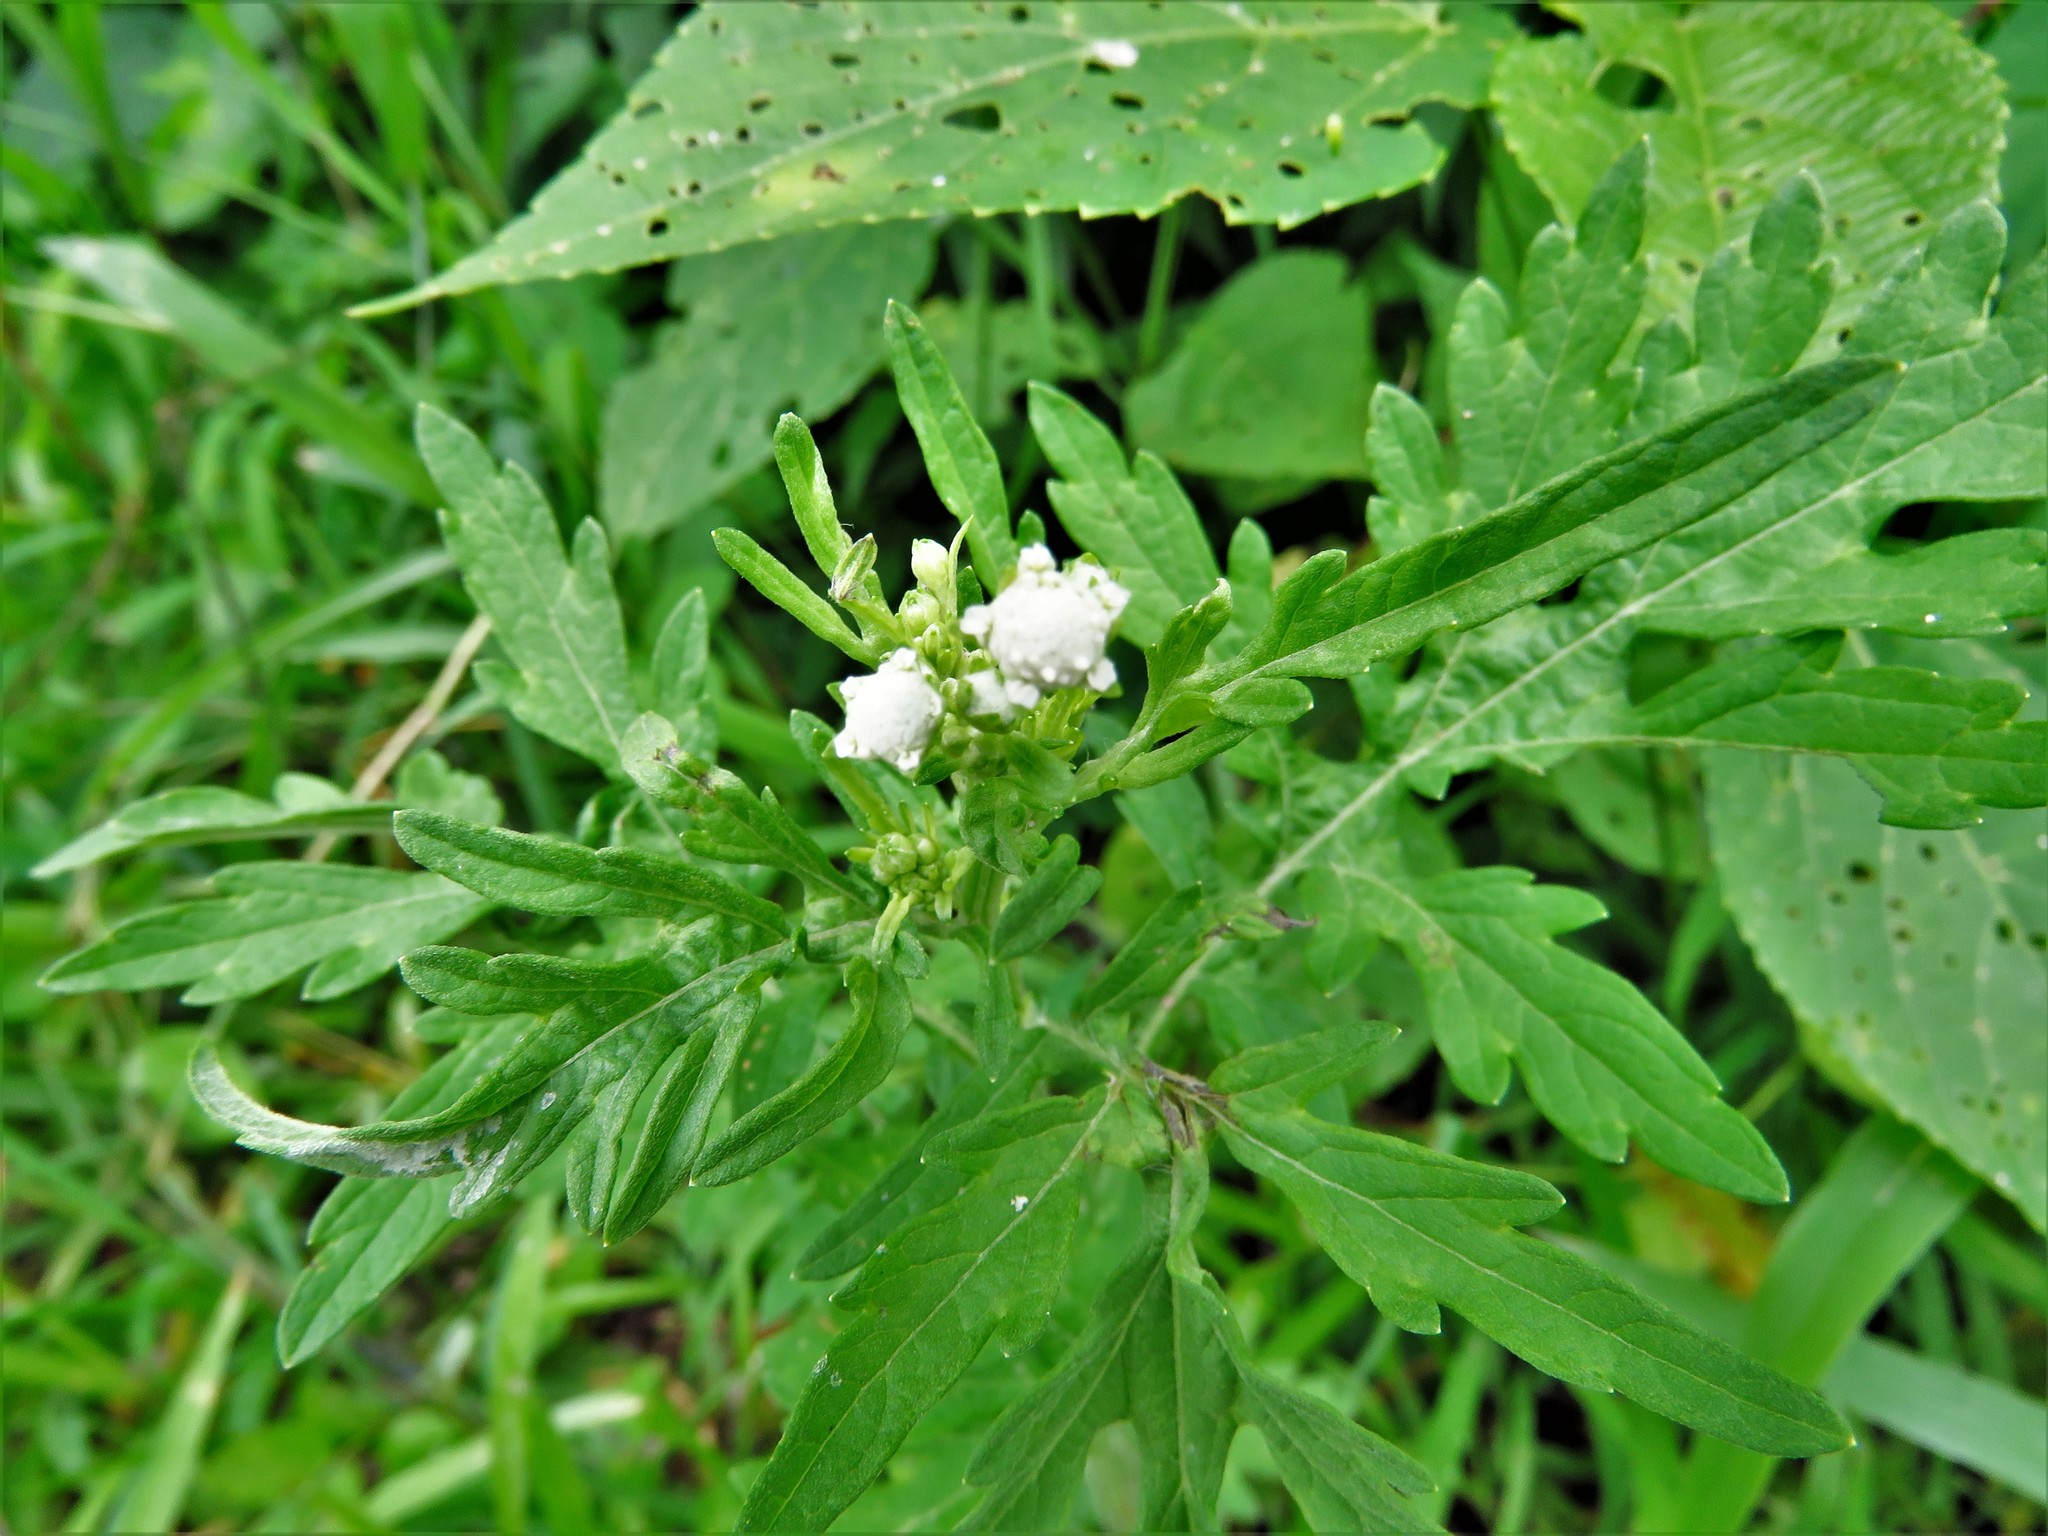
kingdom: Plantae
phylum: Tracheophyta
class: Magnoliopsida
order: Asterales
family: Asteraceae
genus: Parthenium
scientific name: Parthenium hysterophorus
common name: Santa maria feverfew
